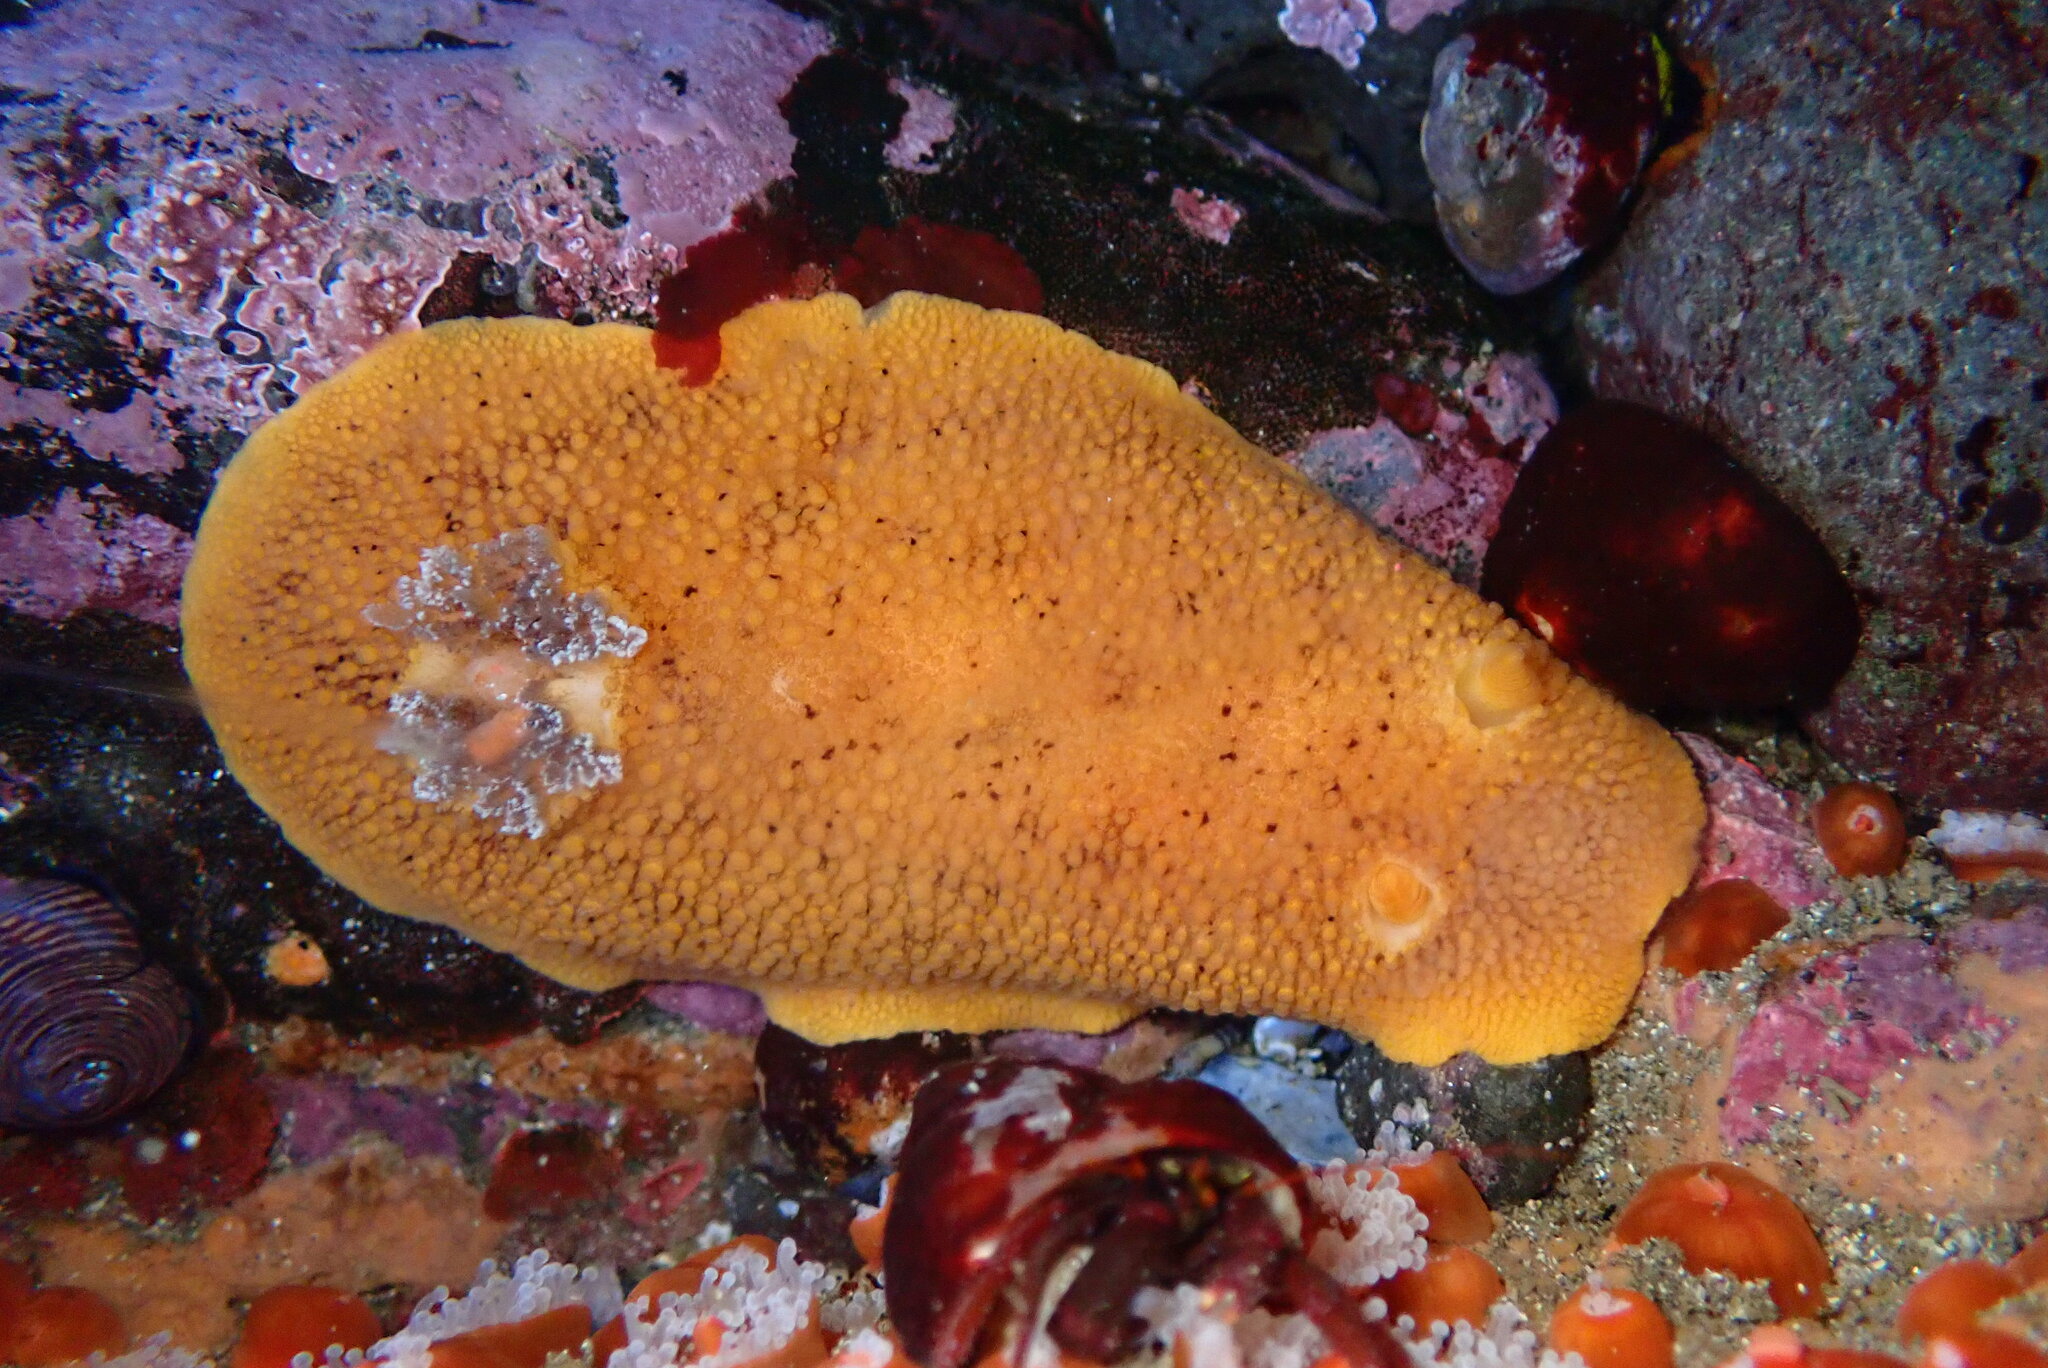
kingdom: Animalia
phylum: Mollusca
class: Gastropoda
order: Nudibranchia
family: Discodorididae
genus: Peltodoris
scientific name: Peltodoris nobilis
